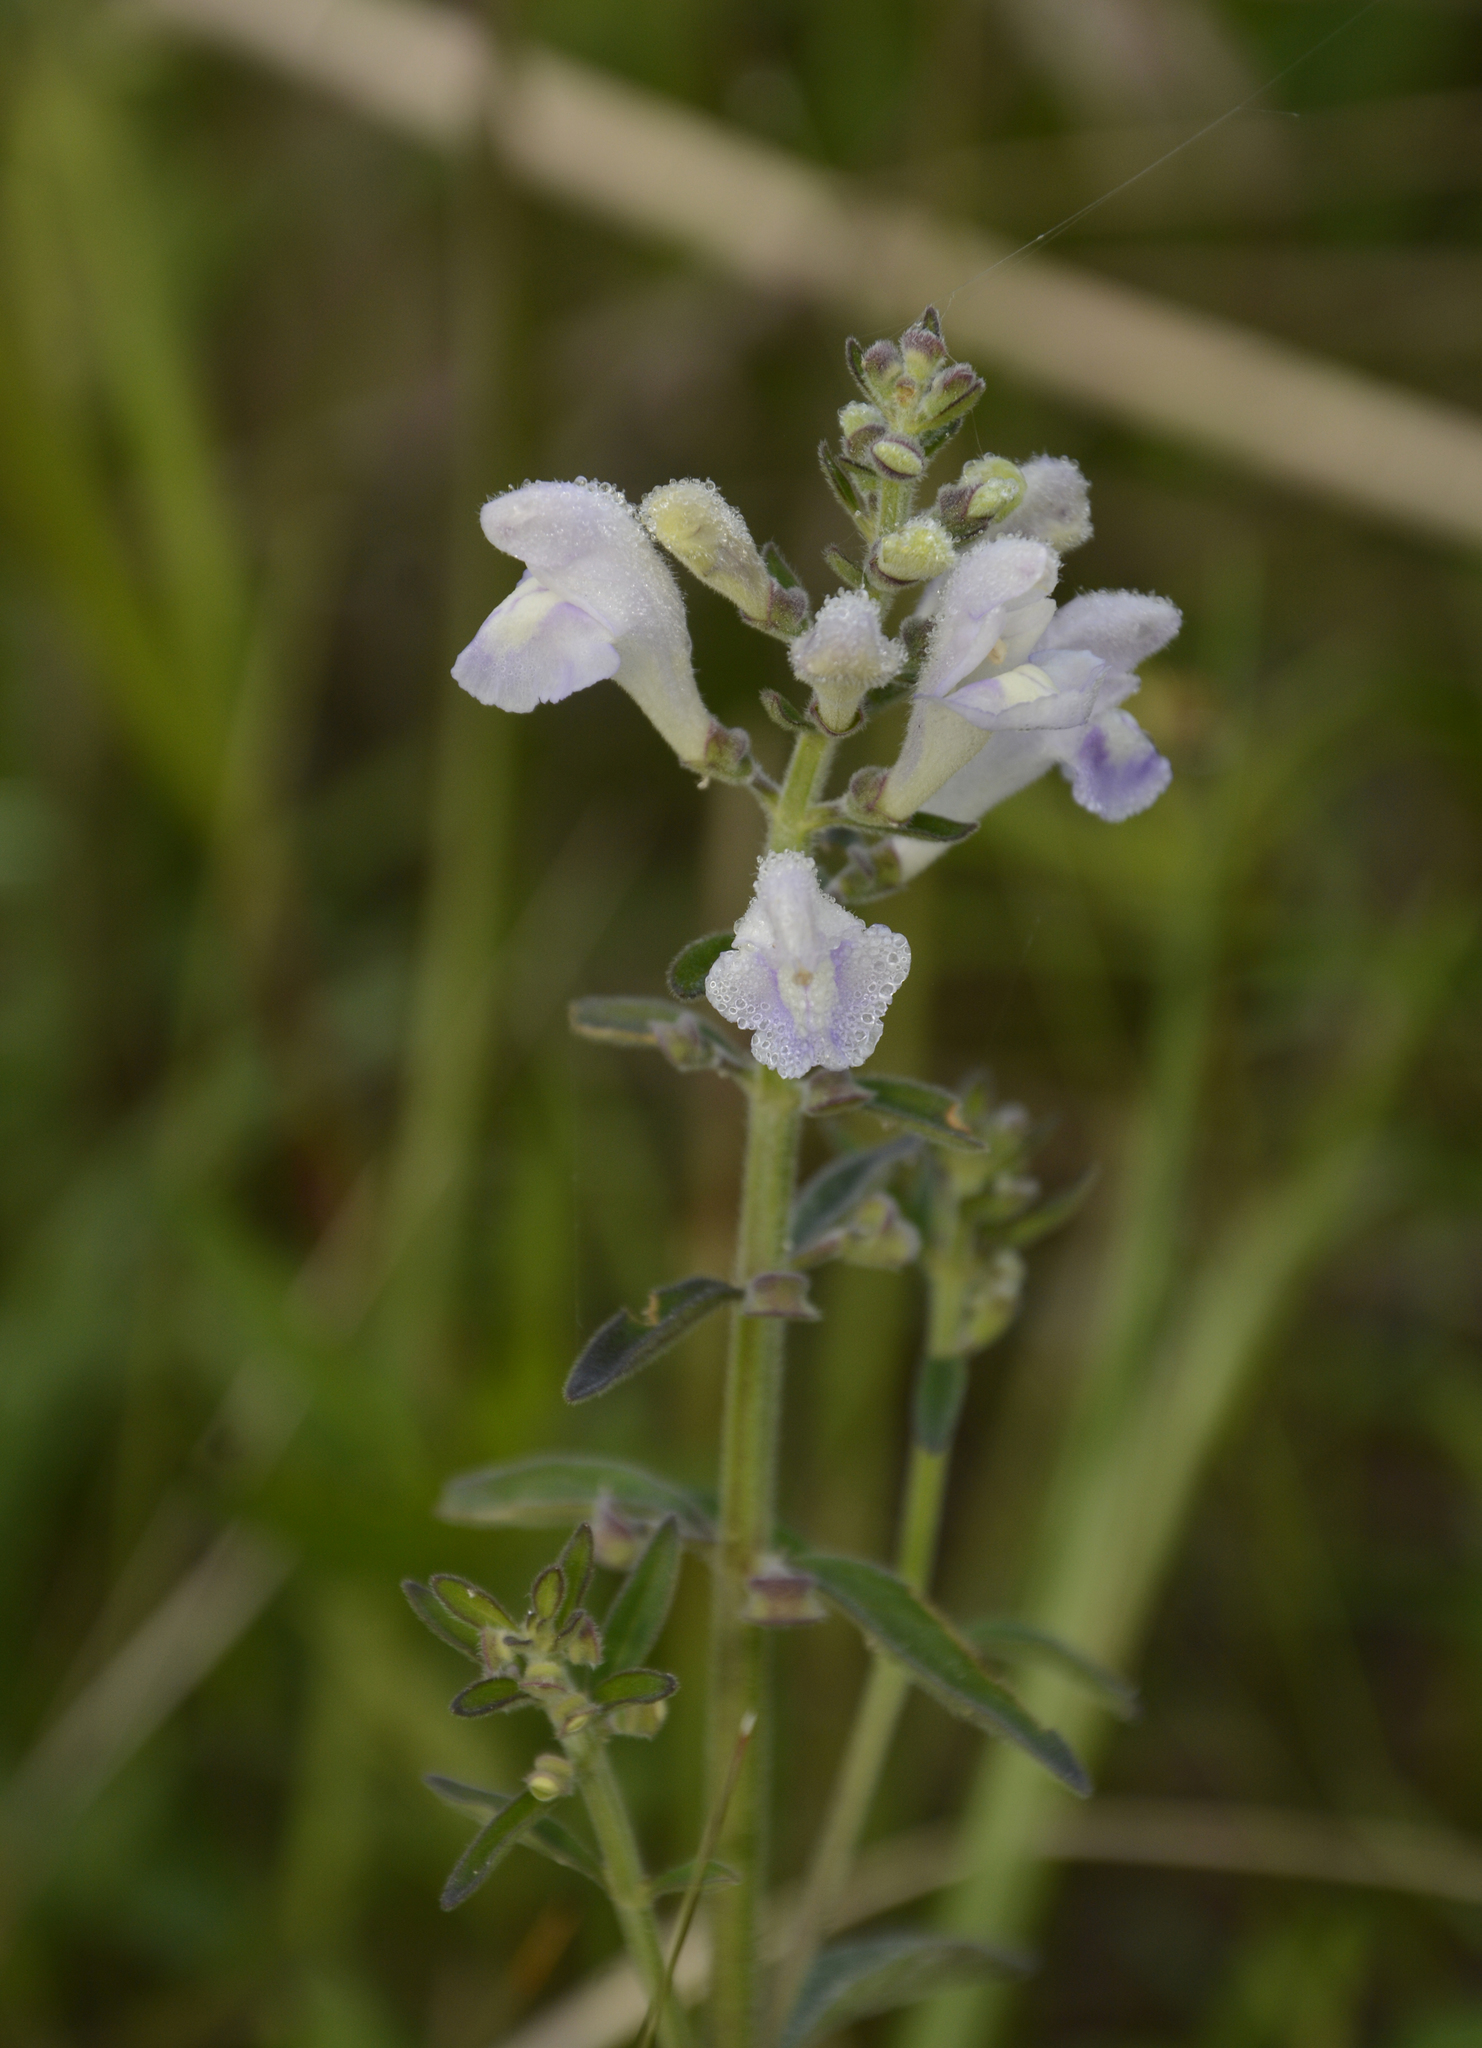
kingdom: Plantae
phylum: Tracheophyta
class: Magnoliopsida
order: Lamiales
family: Lamiaceae
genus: Scutellaria
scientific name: Scutellaria multiglandulosa
